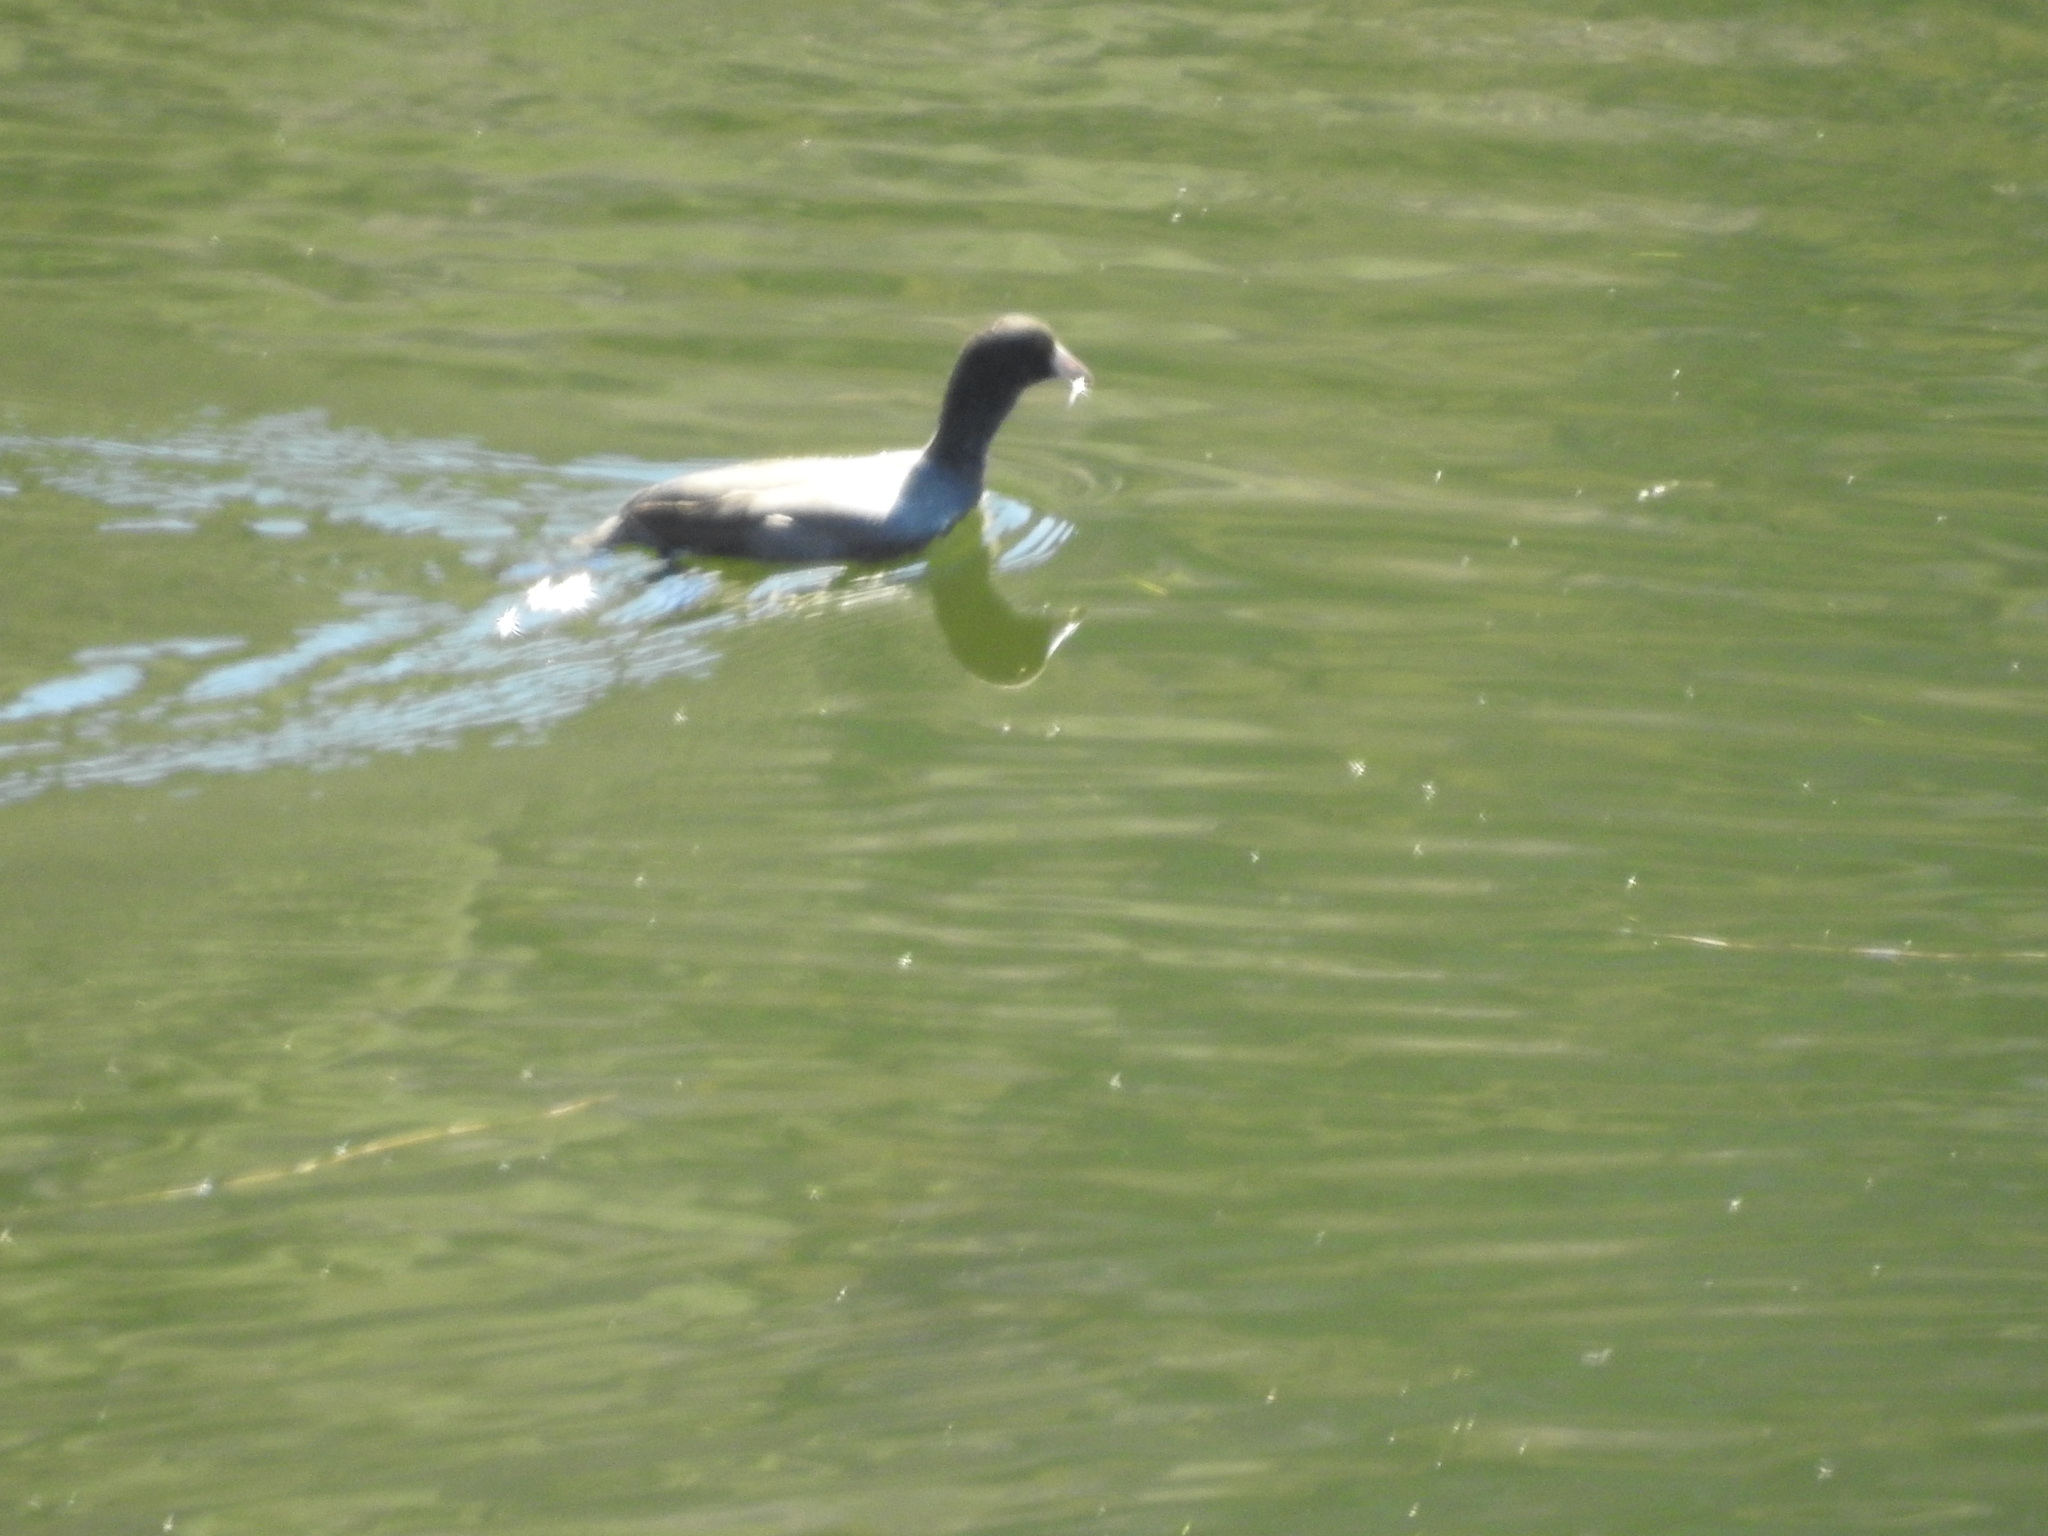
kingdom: Animalia
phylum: Chordata
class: Aves
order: Gruiformes
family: Rallidae
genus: Fulica
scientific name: Fulica americana
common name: American coot
